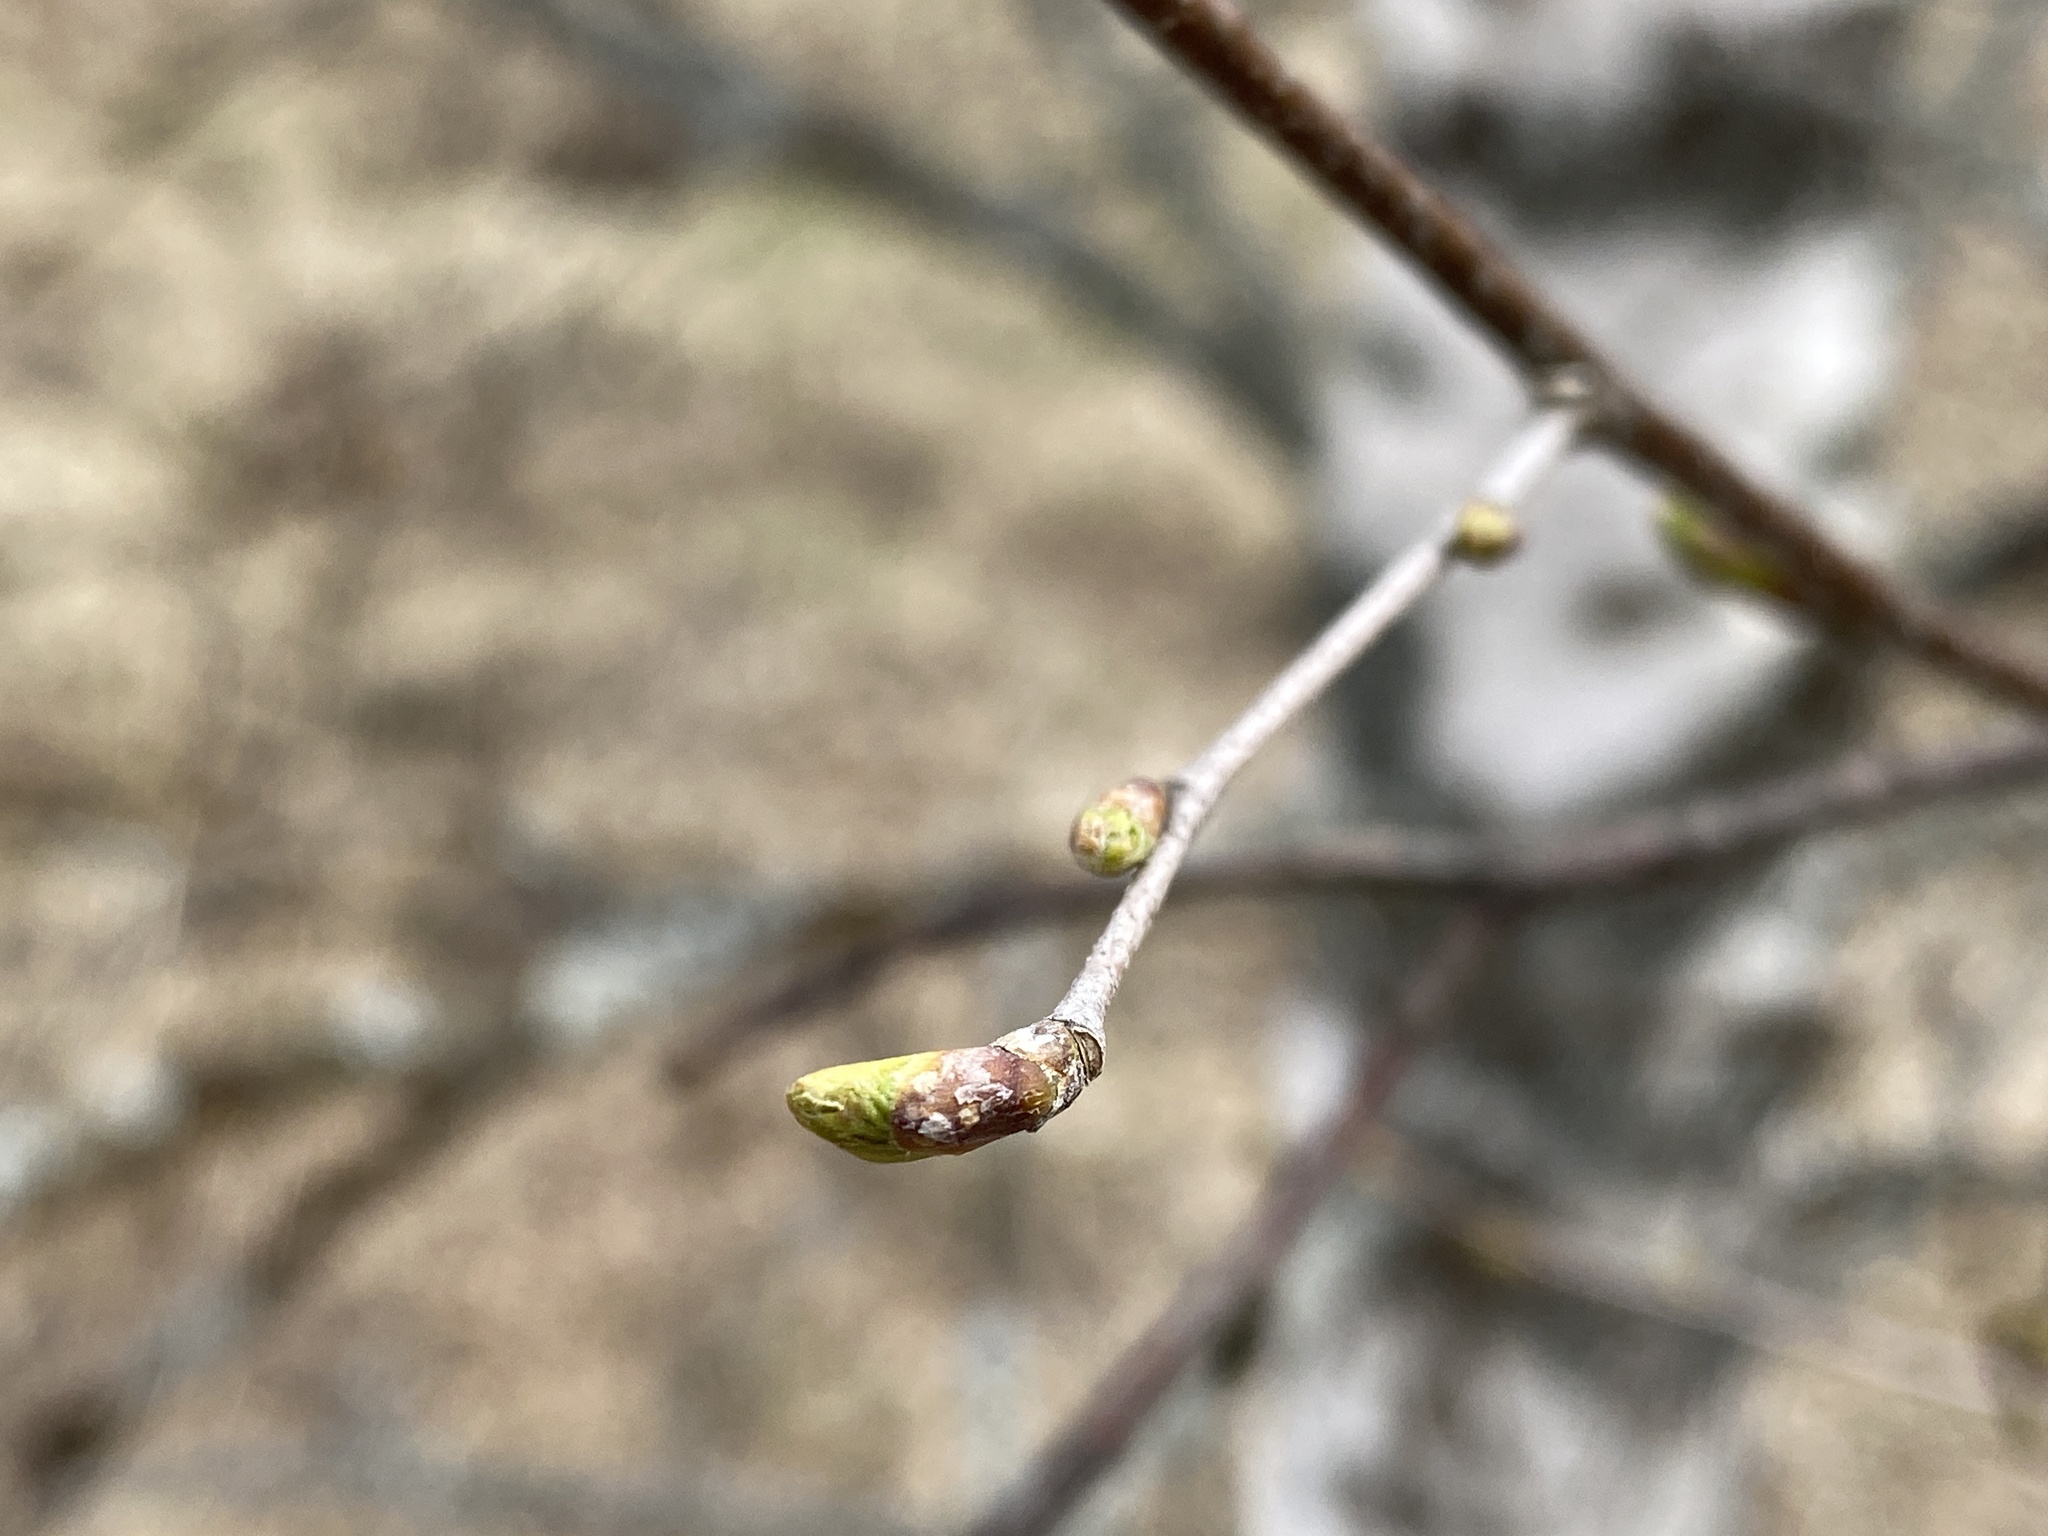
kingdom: Plantae
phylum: Tracheophyta
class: Magnoliopsida
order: Fagales
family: Betulaceae
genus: Betula
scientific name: Betula pendula
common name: Silver birch
